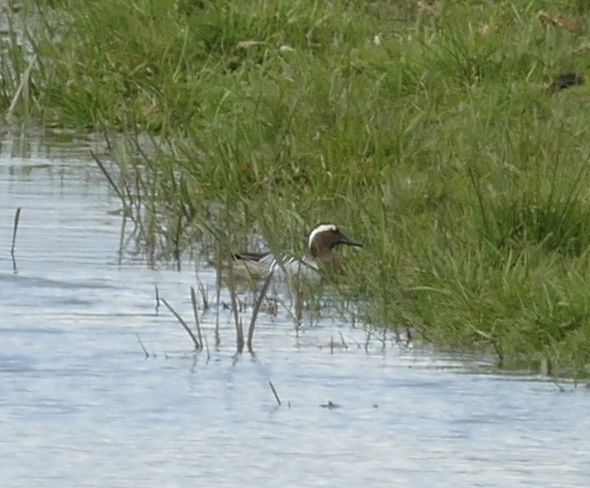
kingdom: Animalia
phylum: Chordata
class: Aves
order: Anseriformes
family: Anatidae
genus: Spatula
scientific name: Spatula querquedula
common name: Garganey
